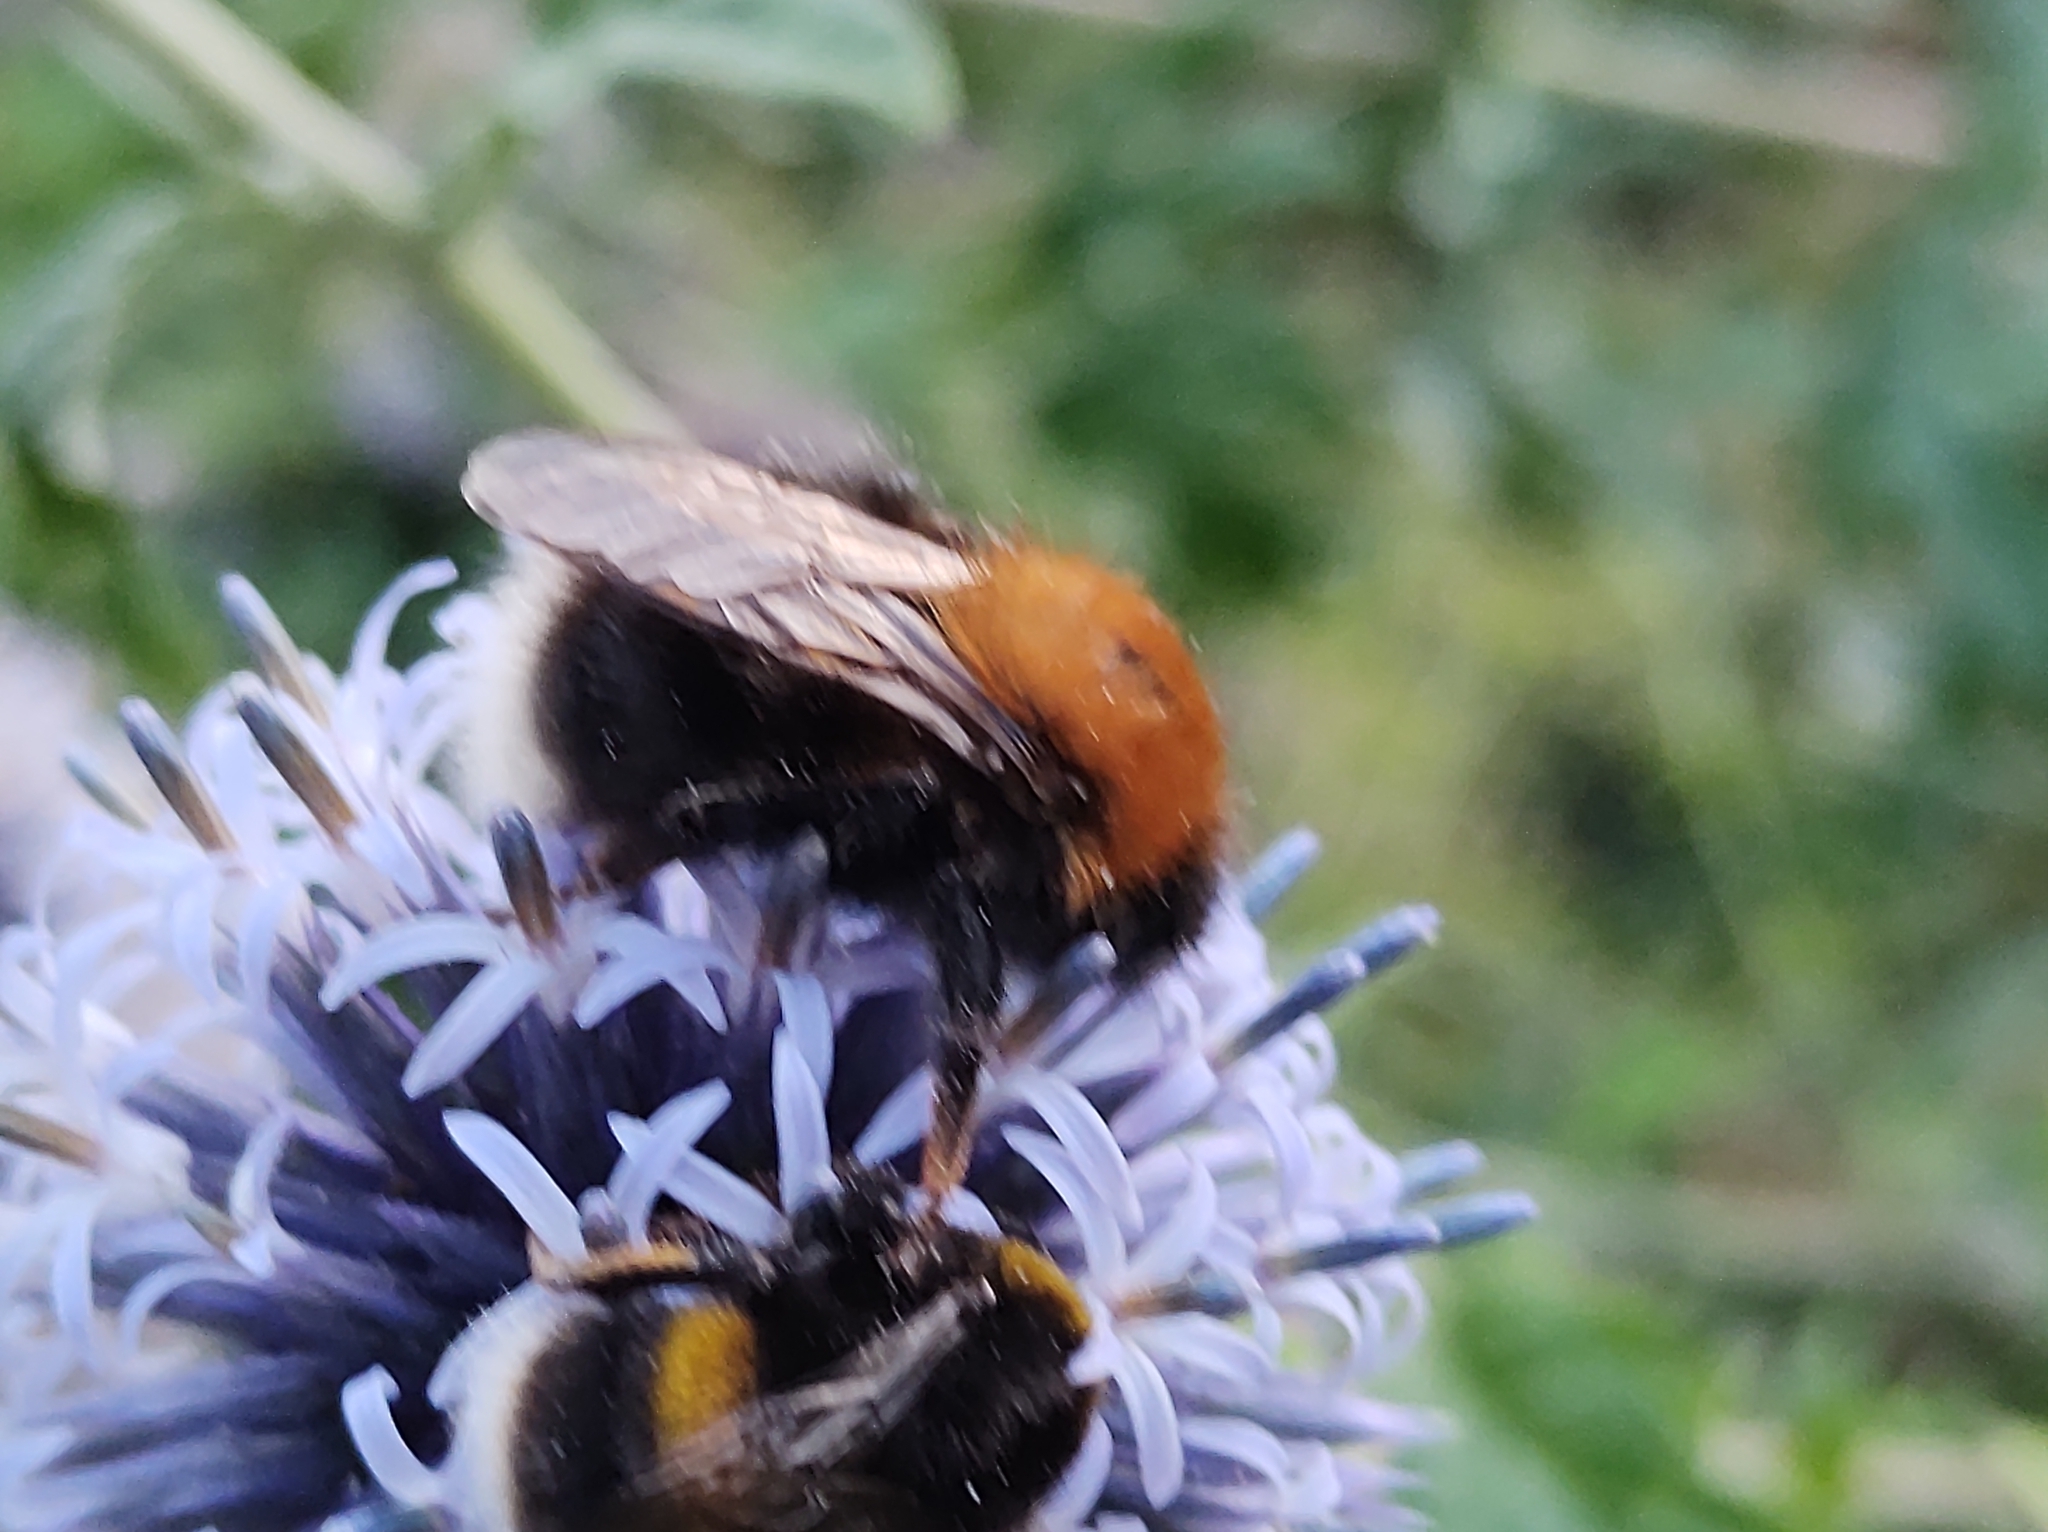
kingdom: Animalia
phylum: Arthropoda
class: Insecta
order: Hymenoptera
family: Apidae
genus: Bombus
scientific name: Bombus hypnorum
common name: New garden bumblebee
